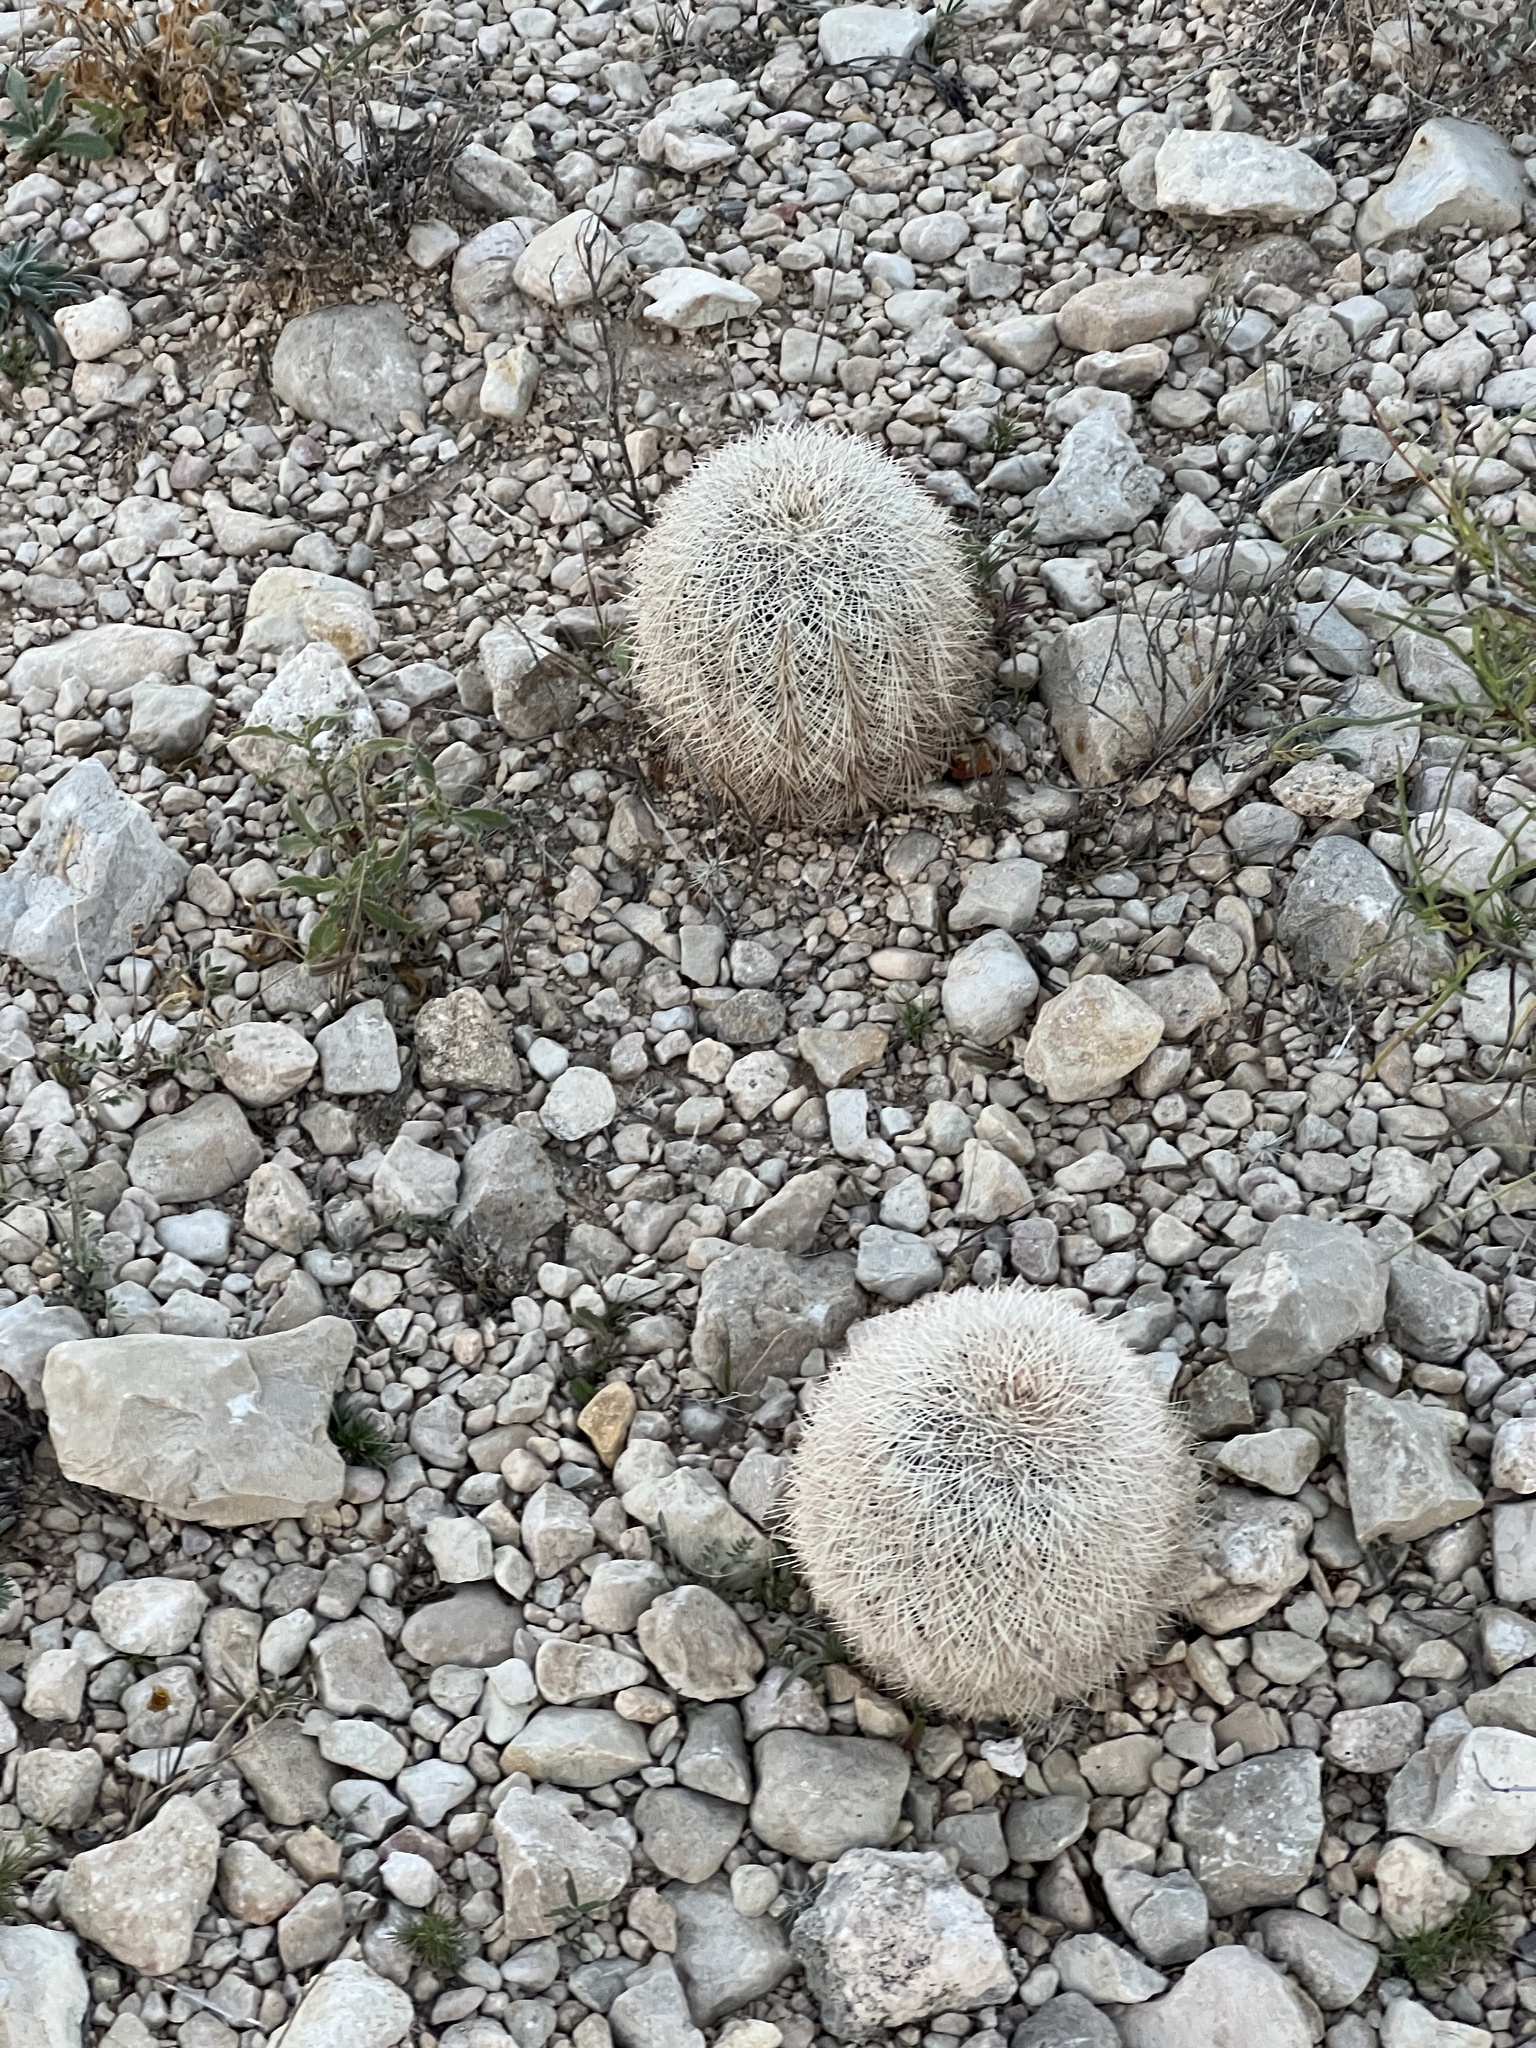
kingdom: Plantae
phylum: Tracheophyta
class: Magnoliopsida
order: Caryophyllales
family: Cactaceae
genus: Echinocereus
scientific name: Echinocereus dasyacanthus
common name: Spiny hedgehog cactus
